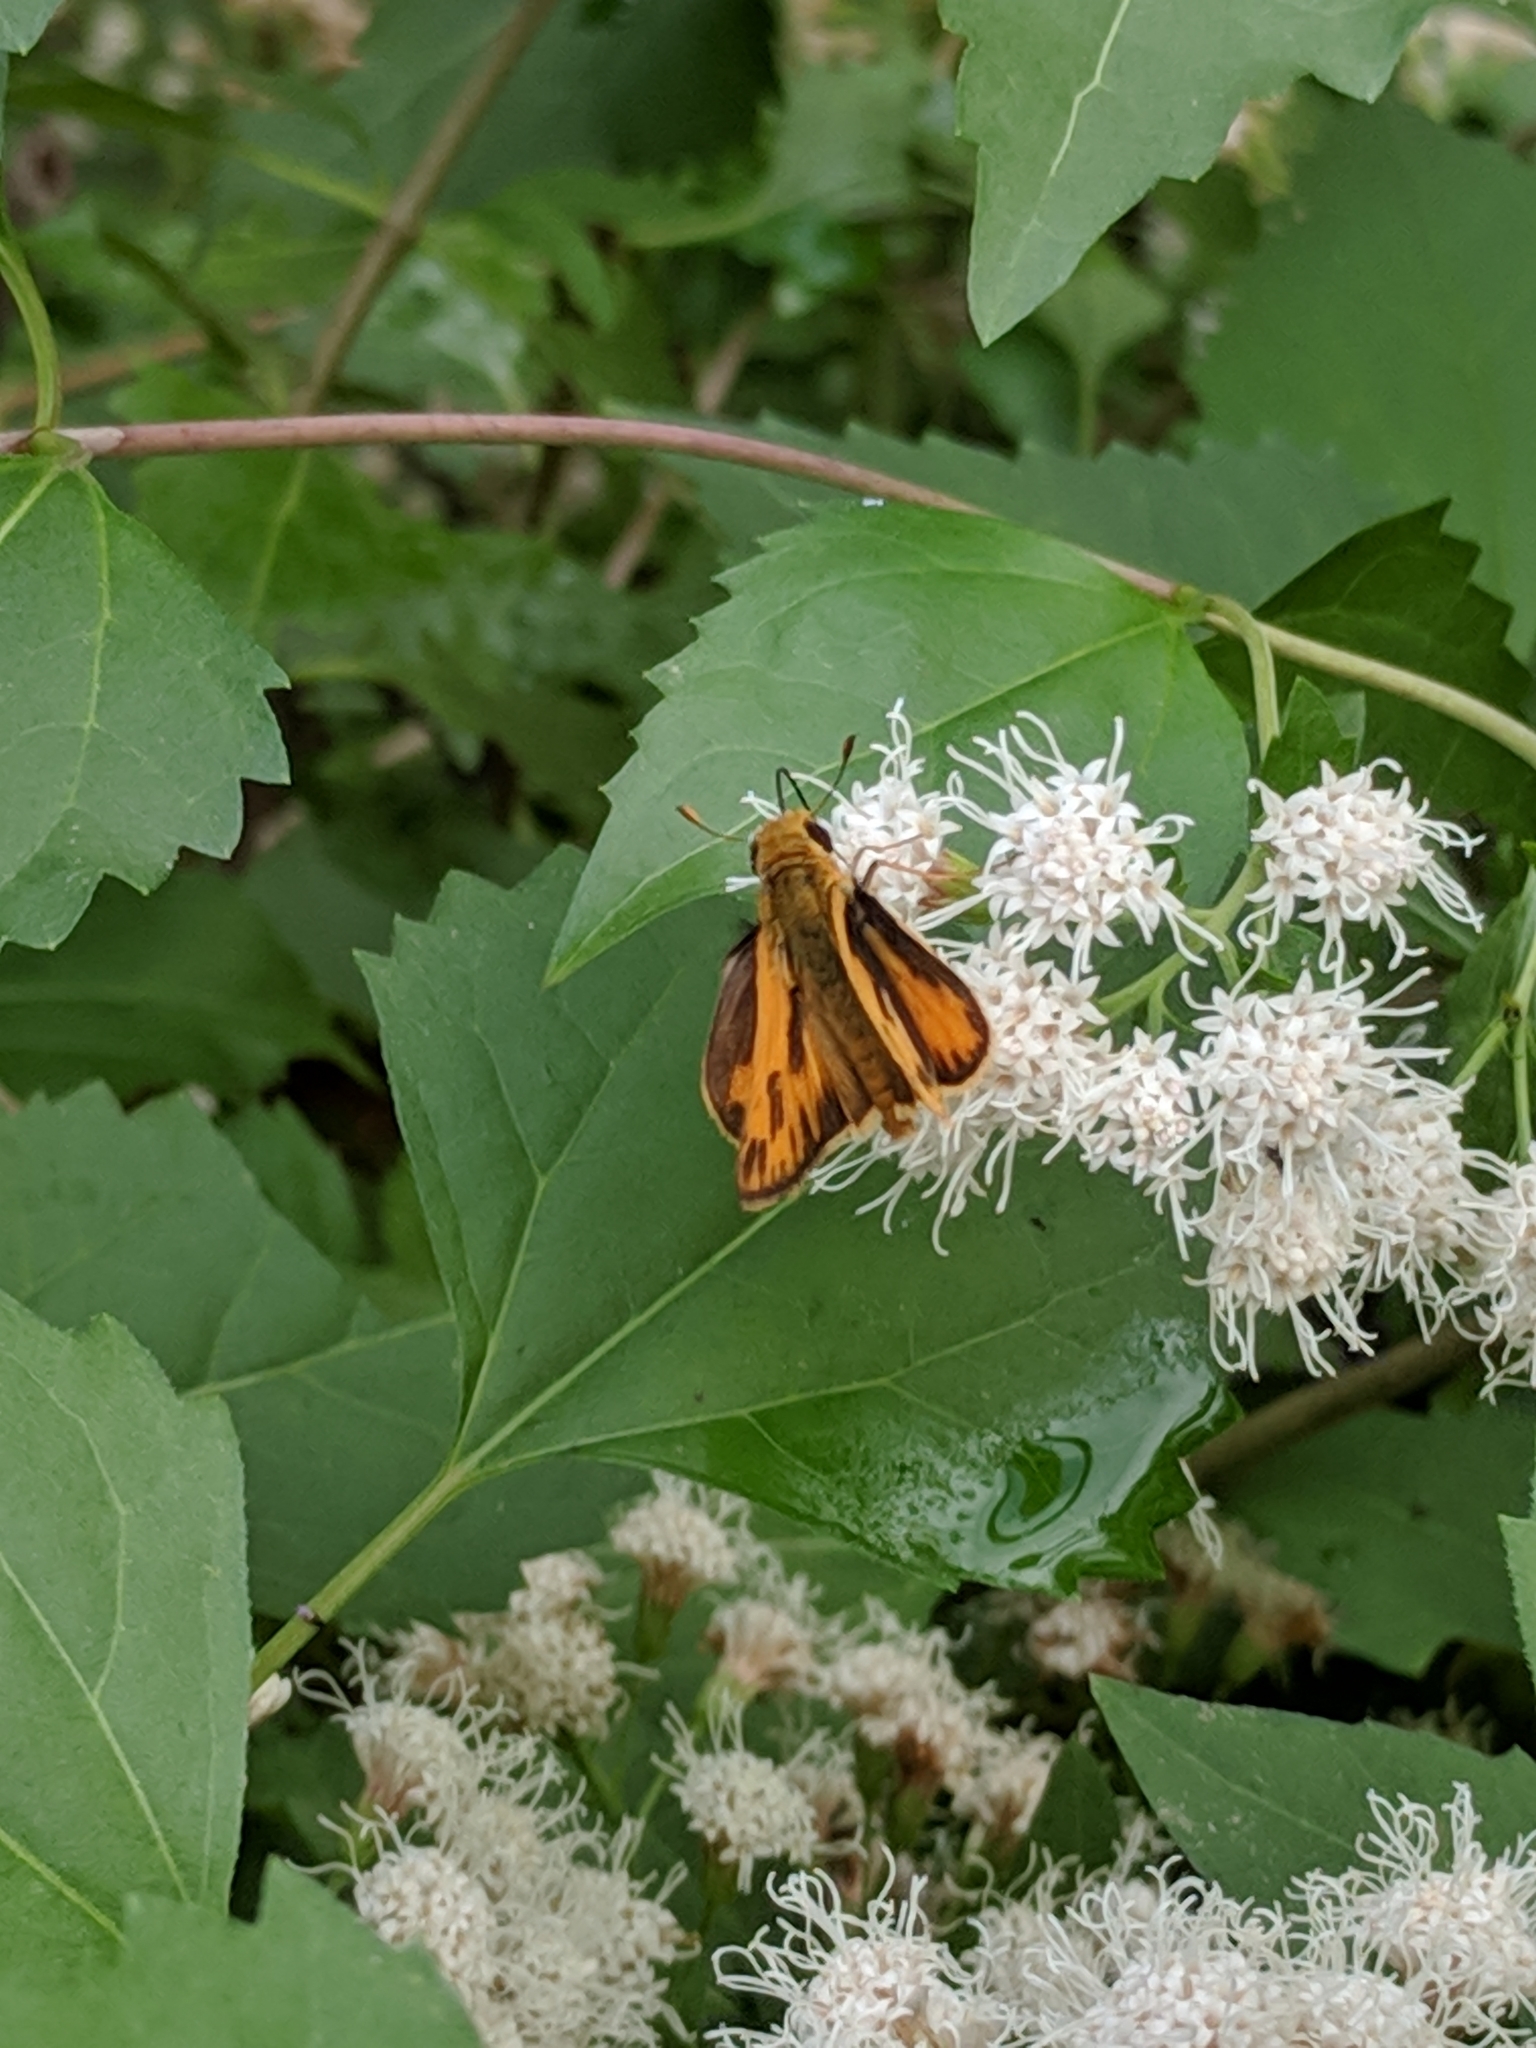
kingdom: Animalia
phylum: Arthropoda
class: Insecta
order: Lepidoptera
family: Hesperiidae
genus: Hylephila
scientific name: Hylephila phyleus
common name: Fiery skipper
